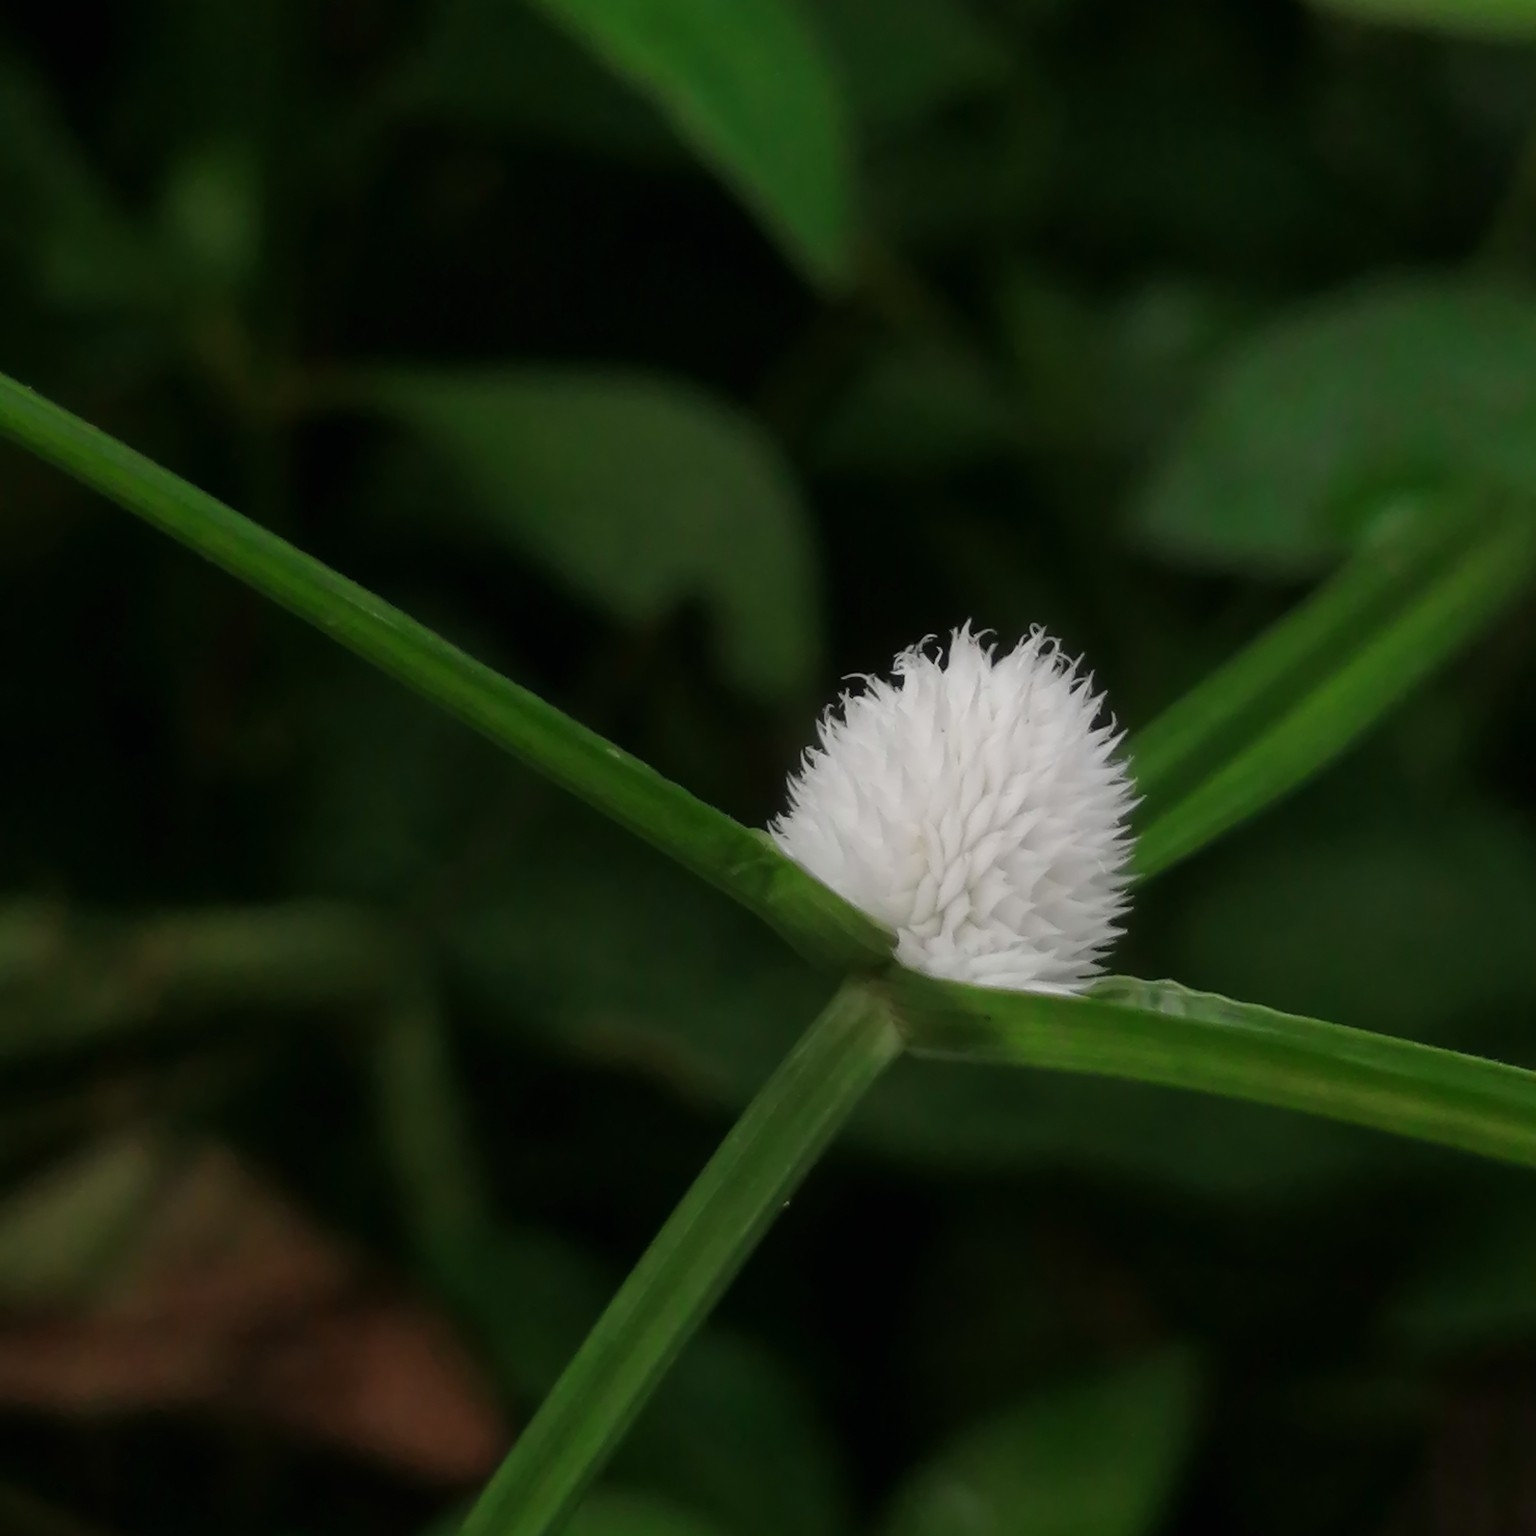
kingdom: Plantae
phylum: Tracheophyta
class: Liliopsida
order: Poales
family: Cyperaceae
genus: Cyperus
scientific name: Cyperus mindorensis
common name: Flatsedge
